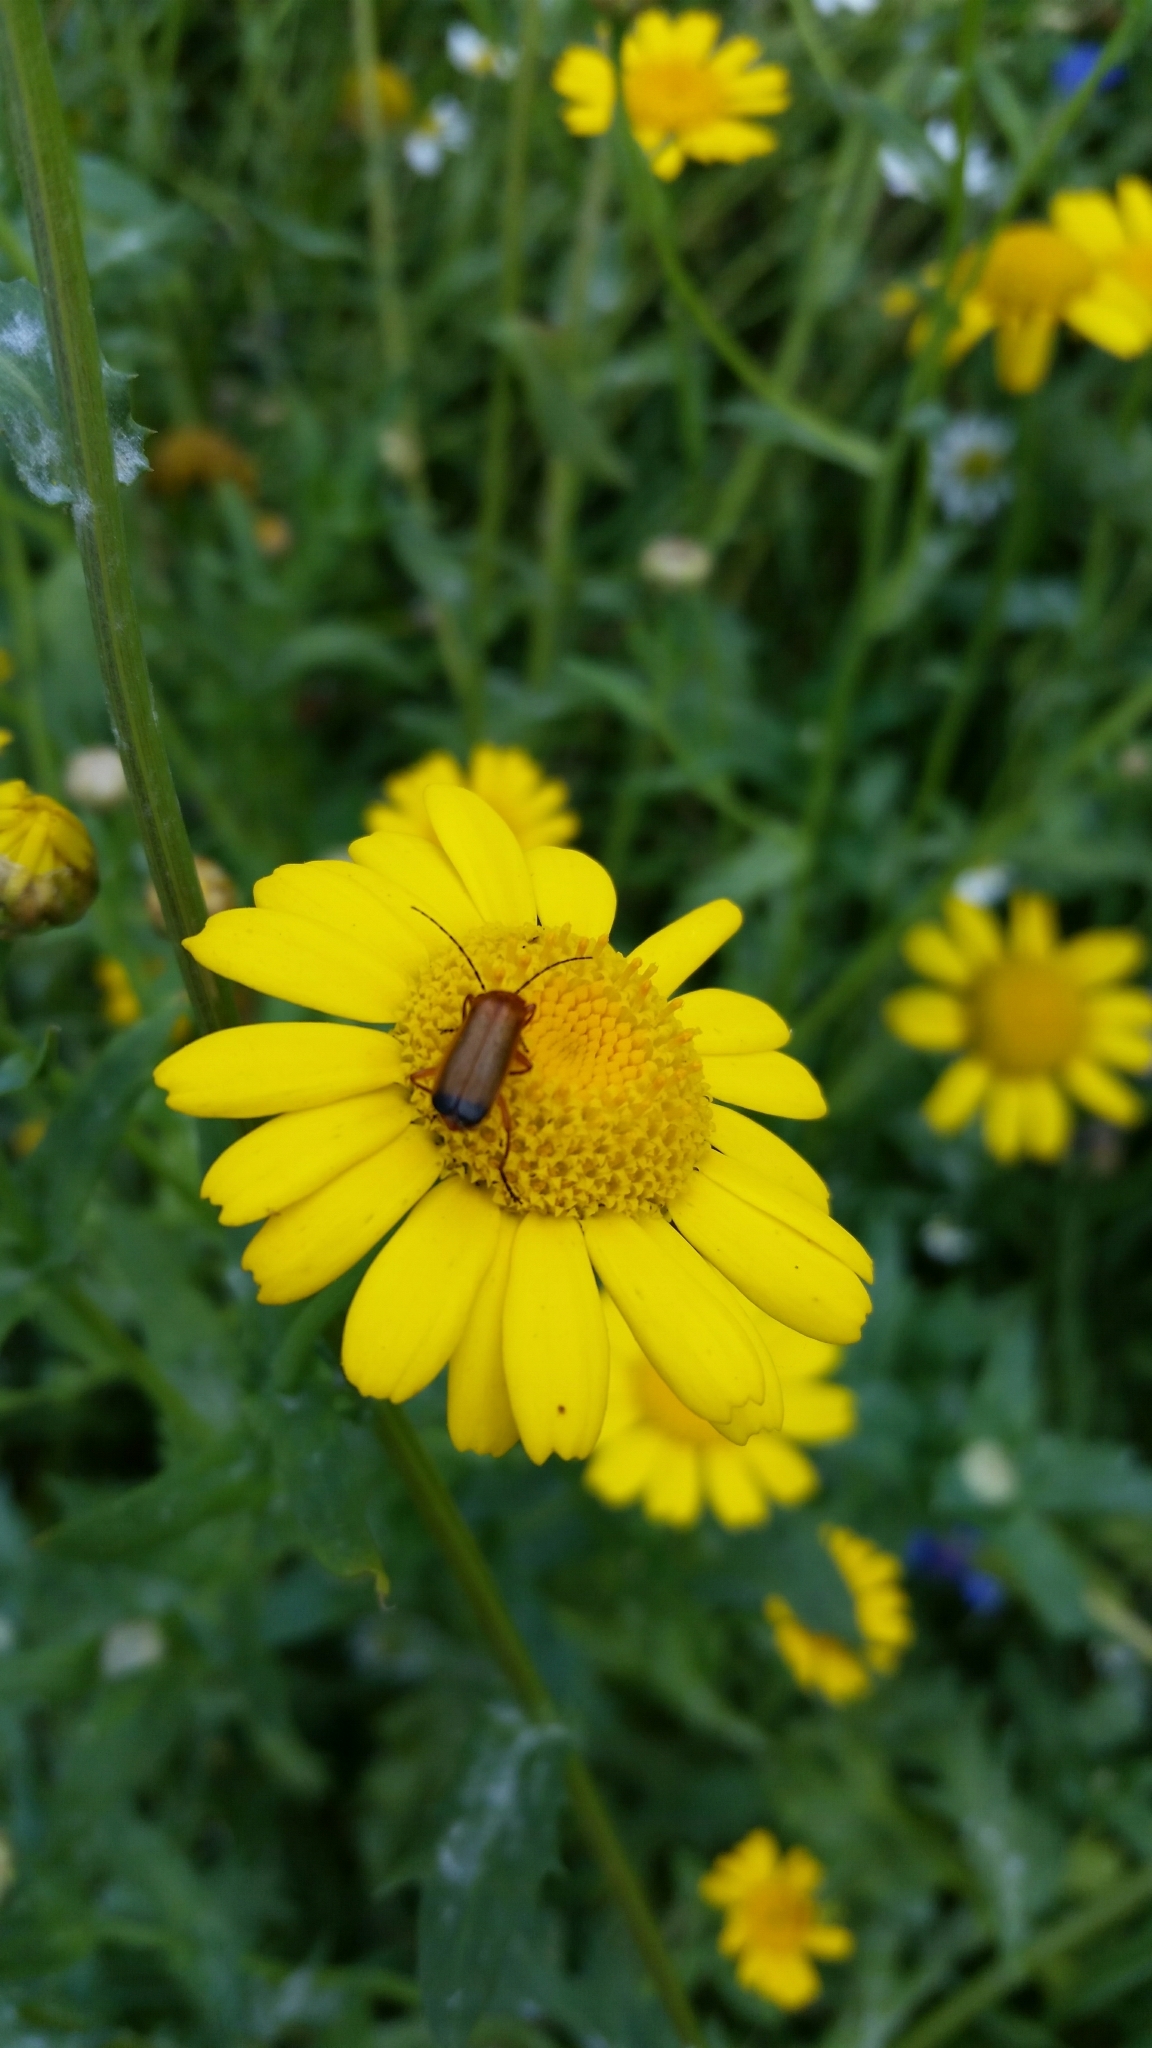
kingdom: Animalia
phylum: Arthropoda
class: Insecta
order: Coleoptera
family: Cantharidae
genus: Rhagonycha
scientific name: Rhagonycha fulva
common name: Common red soldier beetle
